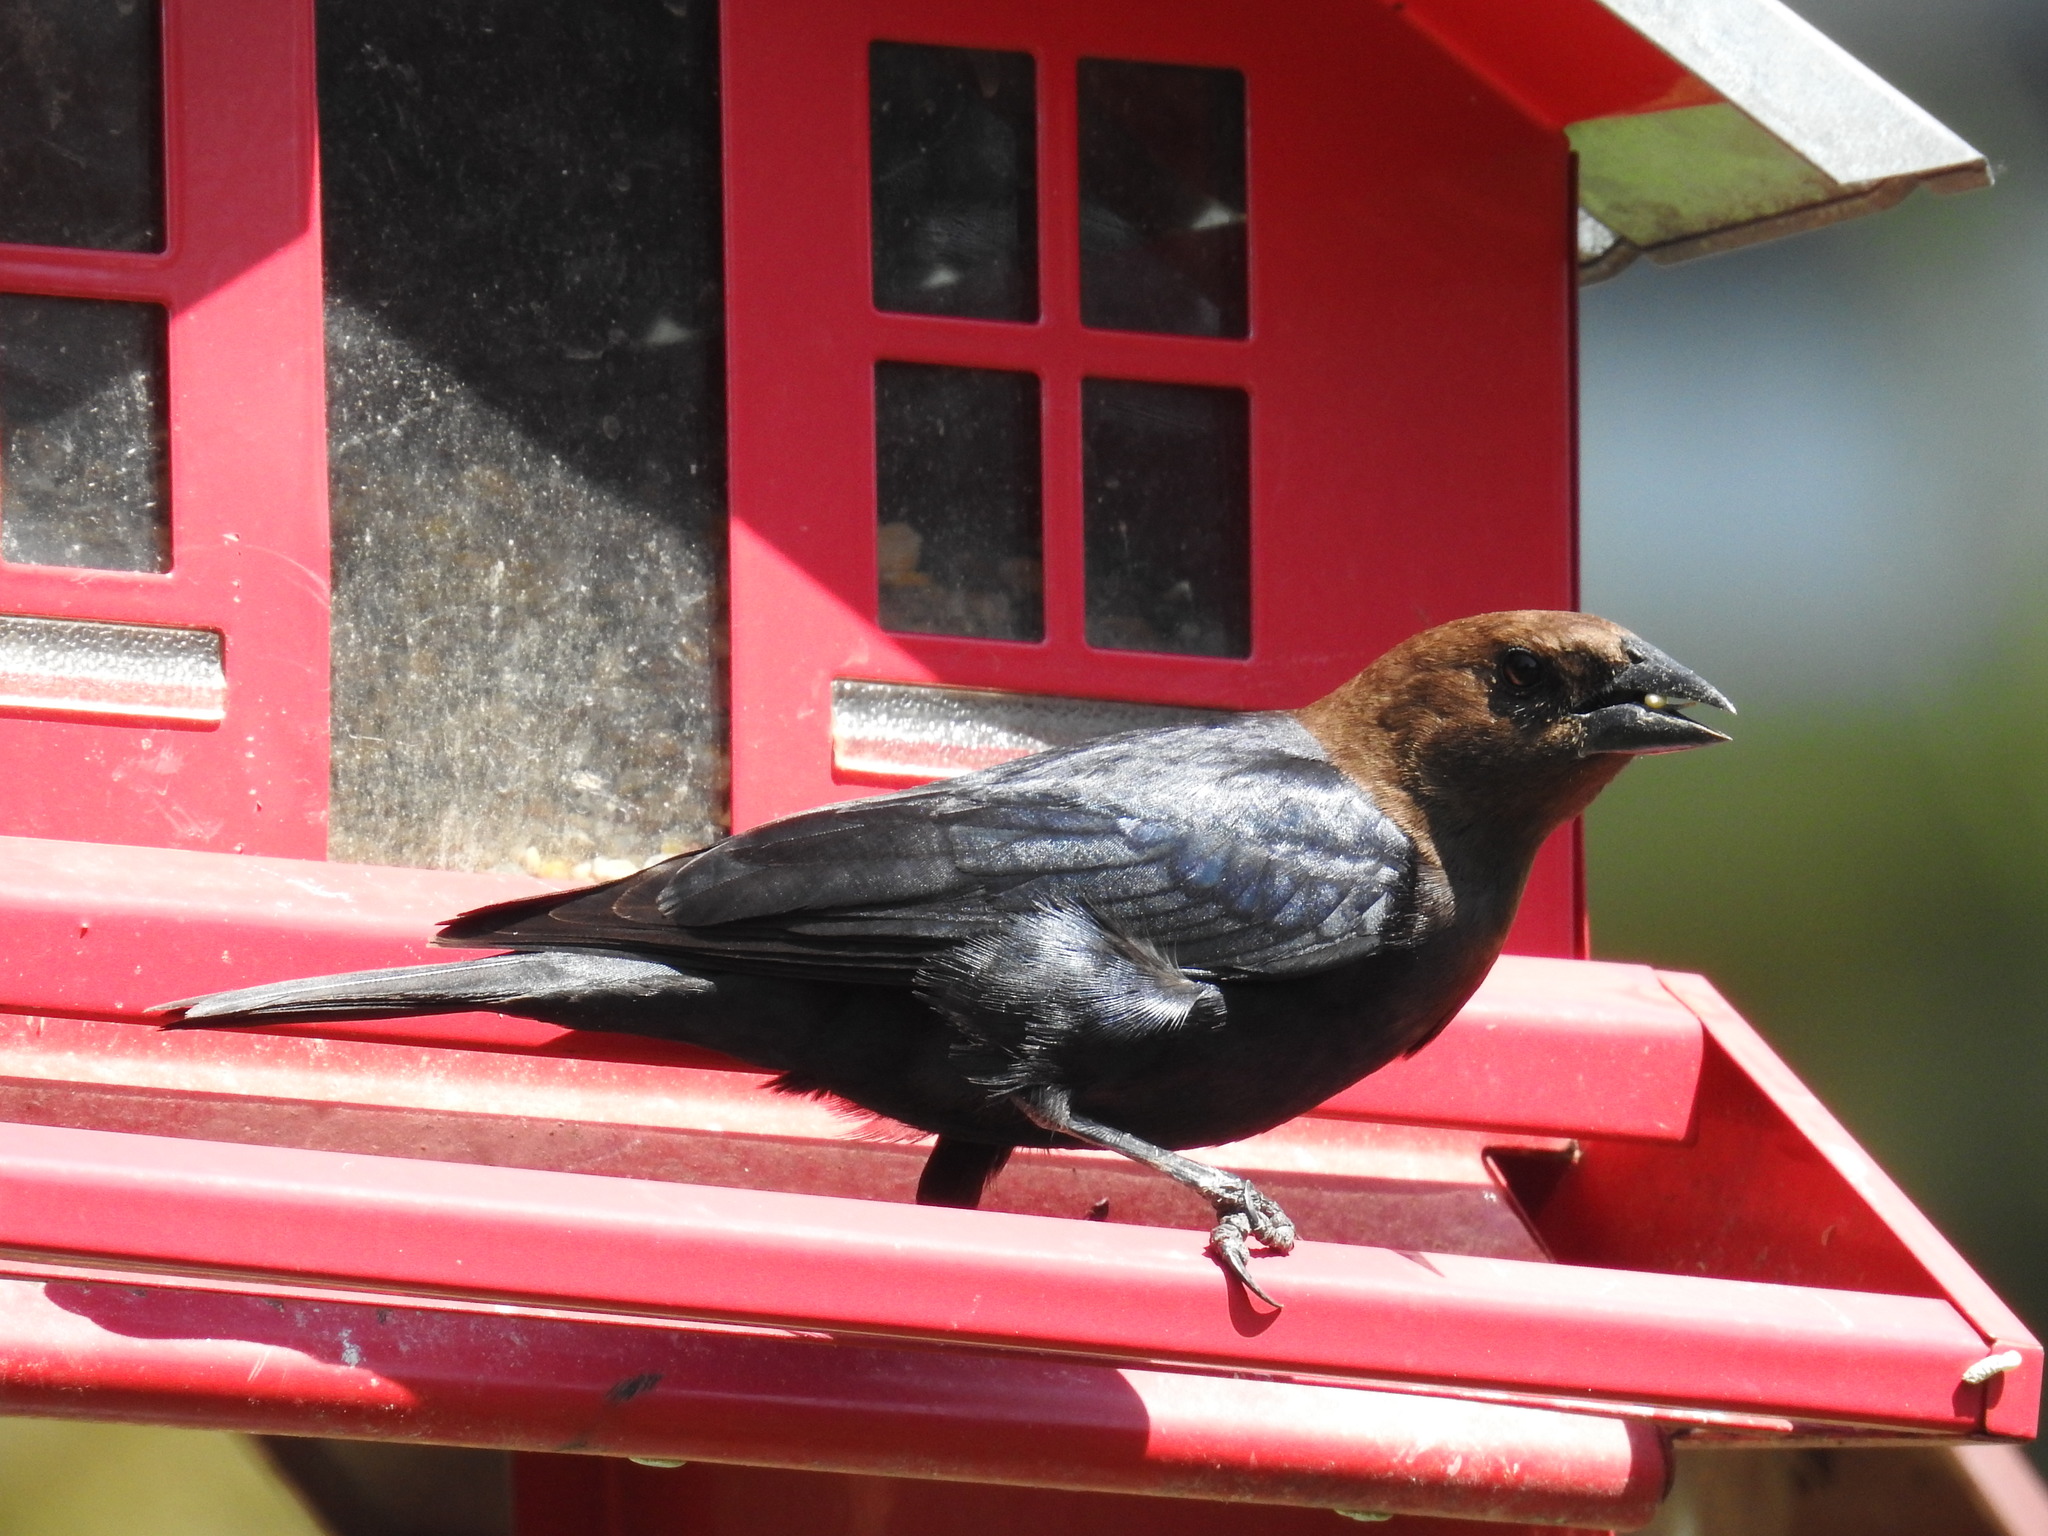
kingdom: Animalia
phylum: Chordata
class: Aves
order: Passeriformes
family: Icteridae
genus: Molothrus
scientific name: Molothrus ater
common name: Brown-headed cowbird
